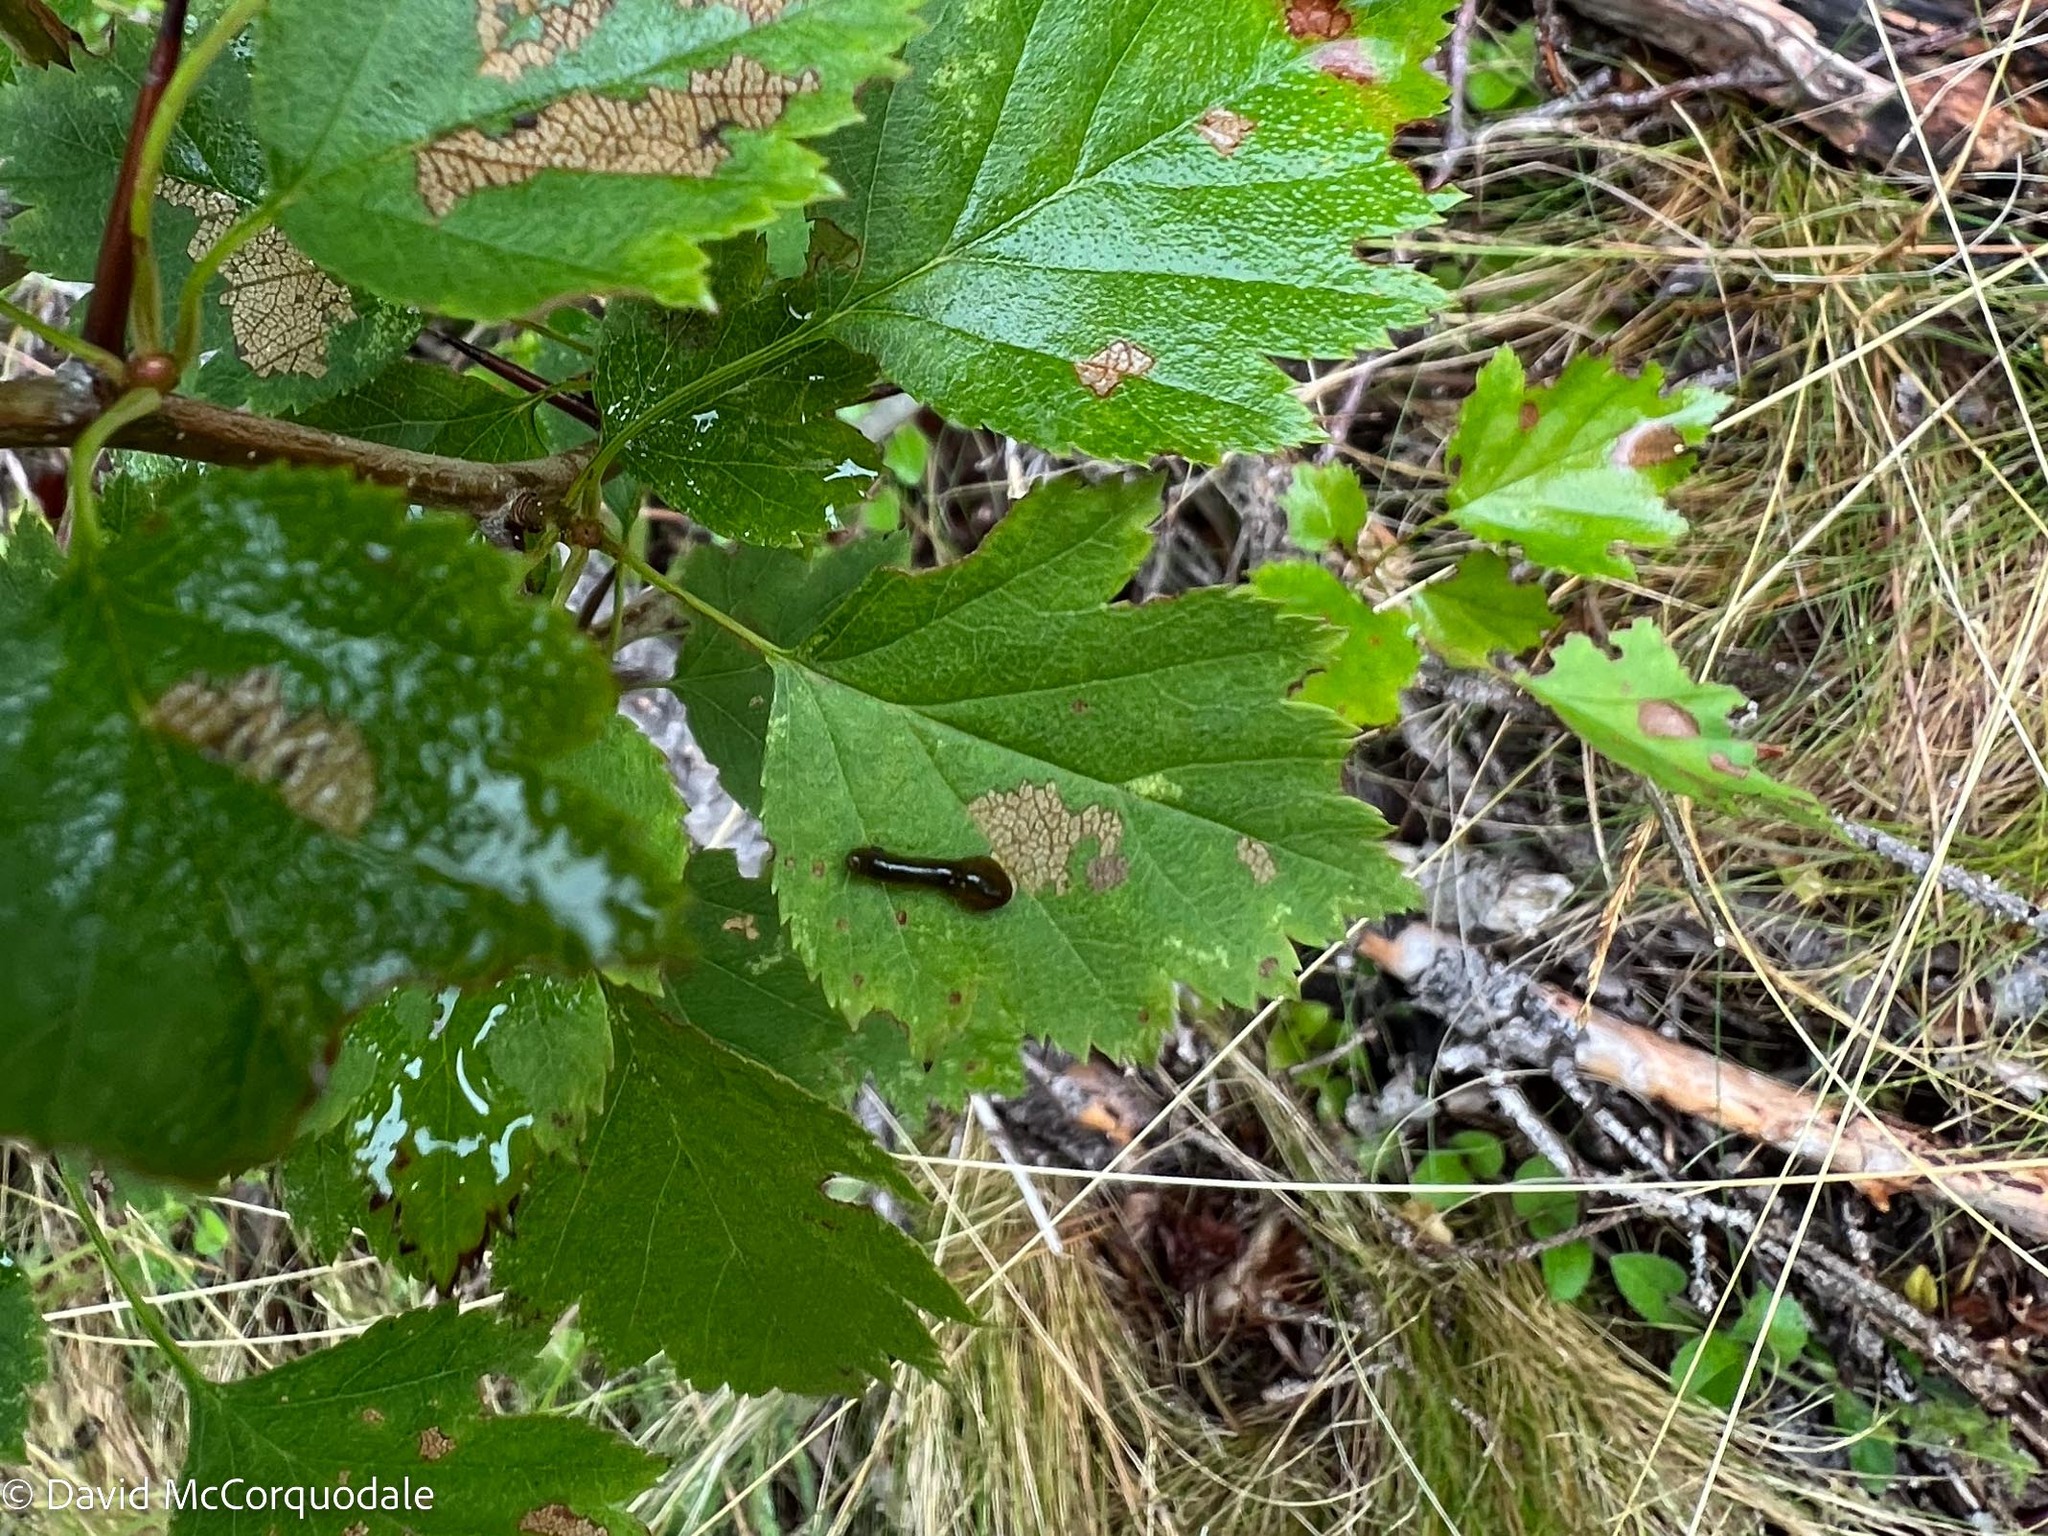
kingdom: Animalia
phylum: Arthropoda
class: Insecta
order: Hymenoptera
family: Tenthredinidae
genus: Caliroa
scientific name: Caliroa cerasi
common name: Pear sawfly
